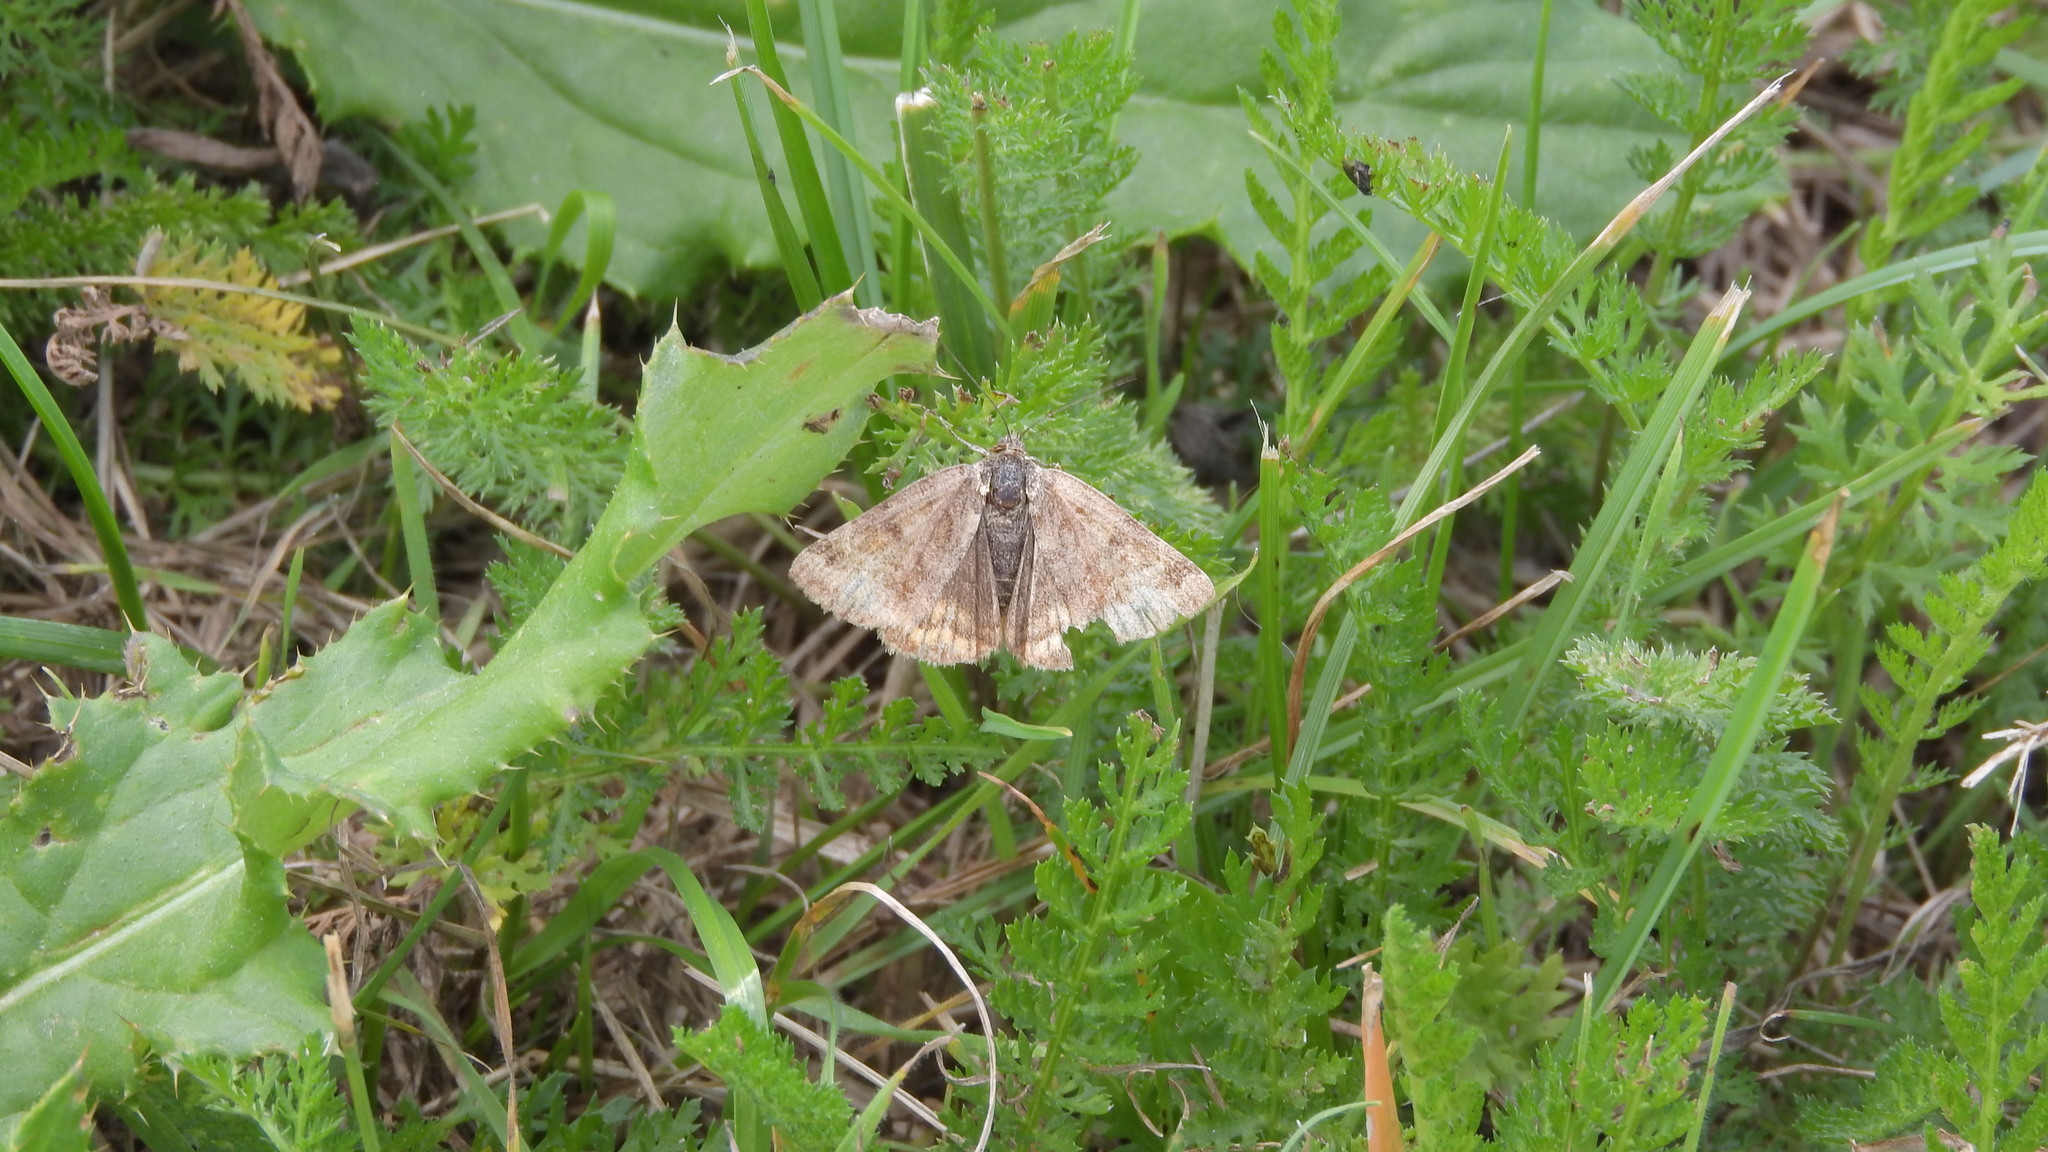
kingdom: Animalia
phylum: Arthropoda
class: Insecta
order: Lepidoptera
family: Erebidae
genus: Euclidia
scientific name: Euclidia glyphica
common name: Burnet companion
